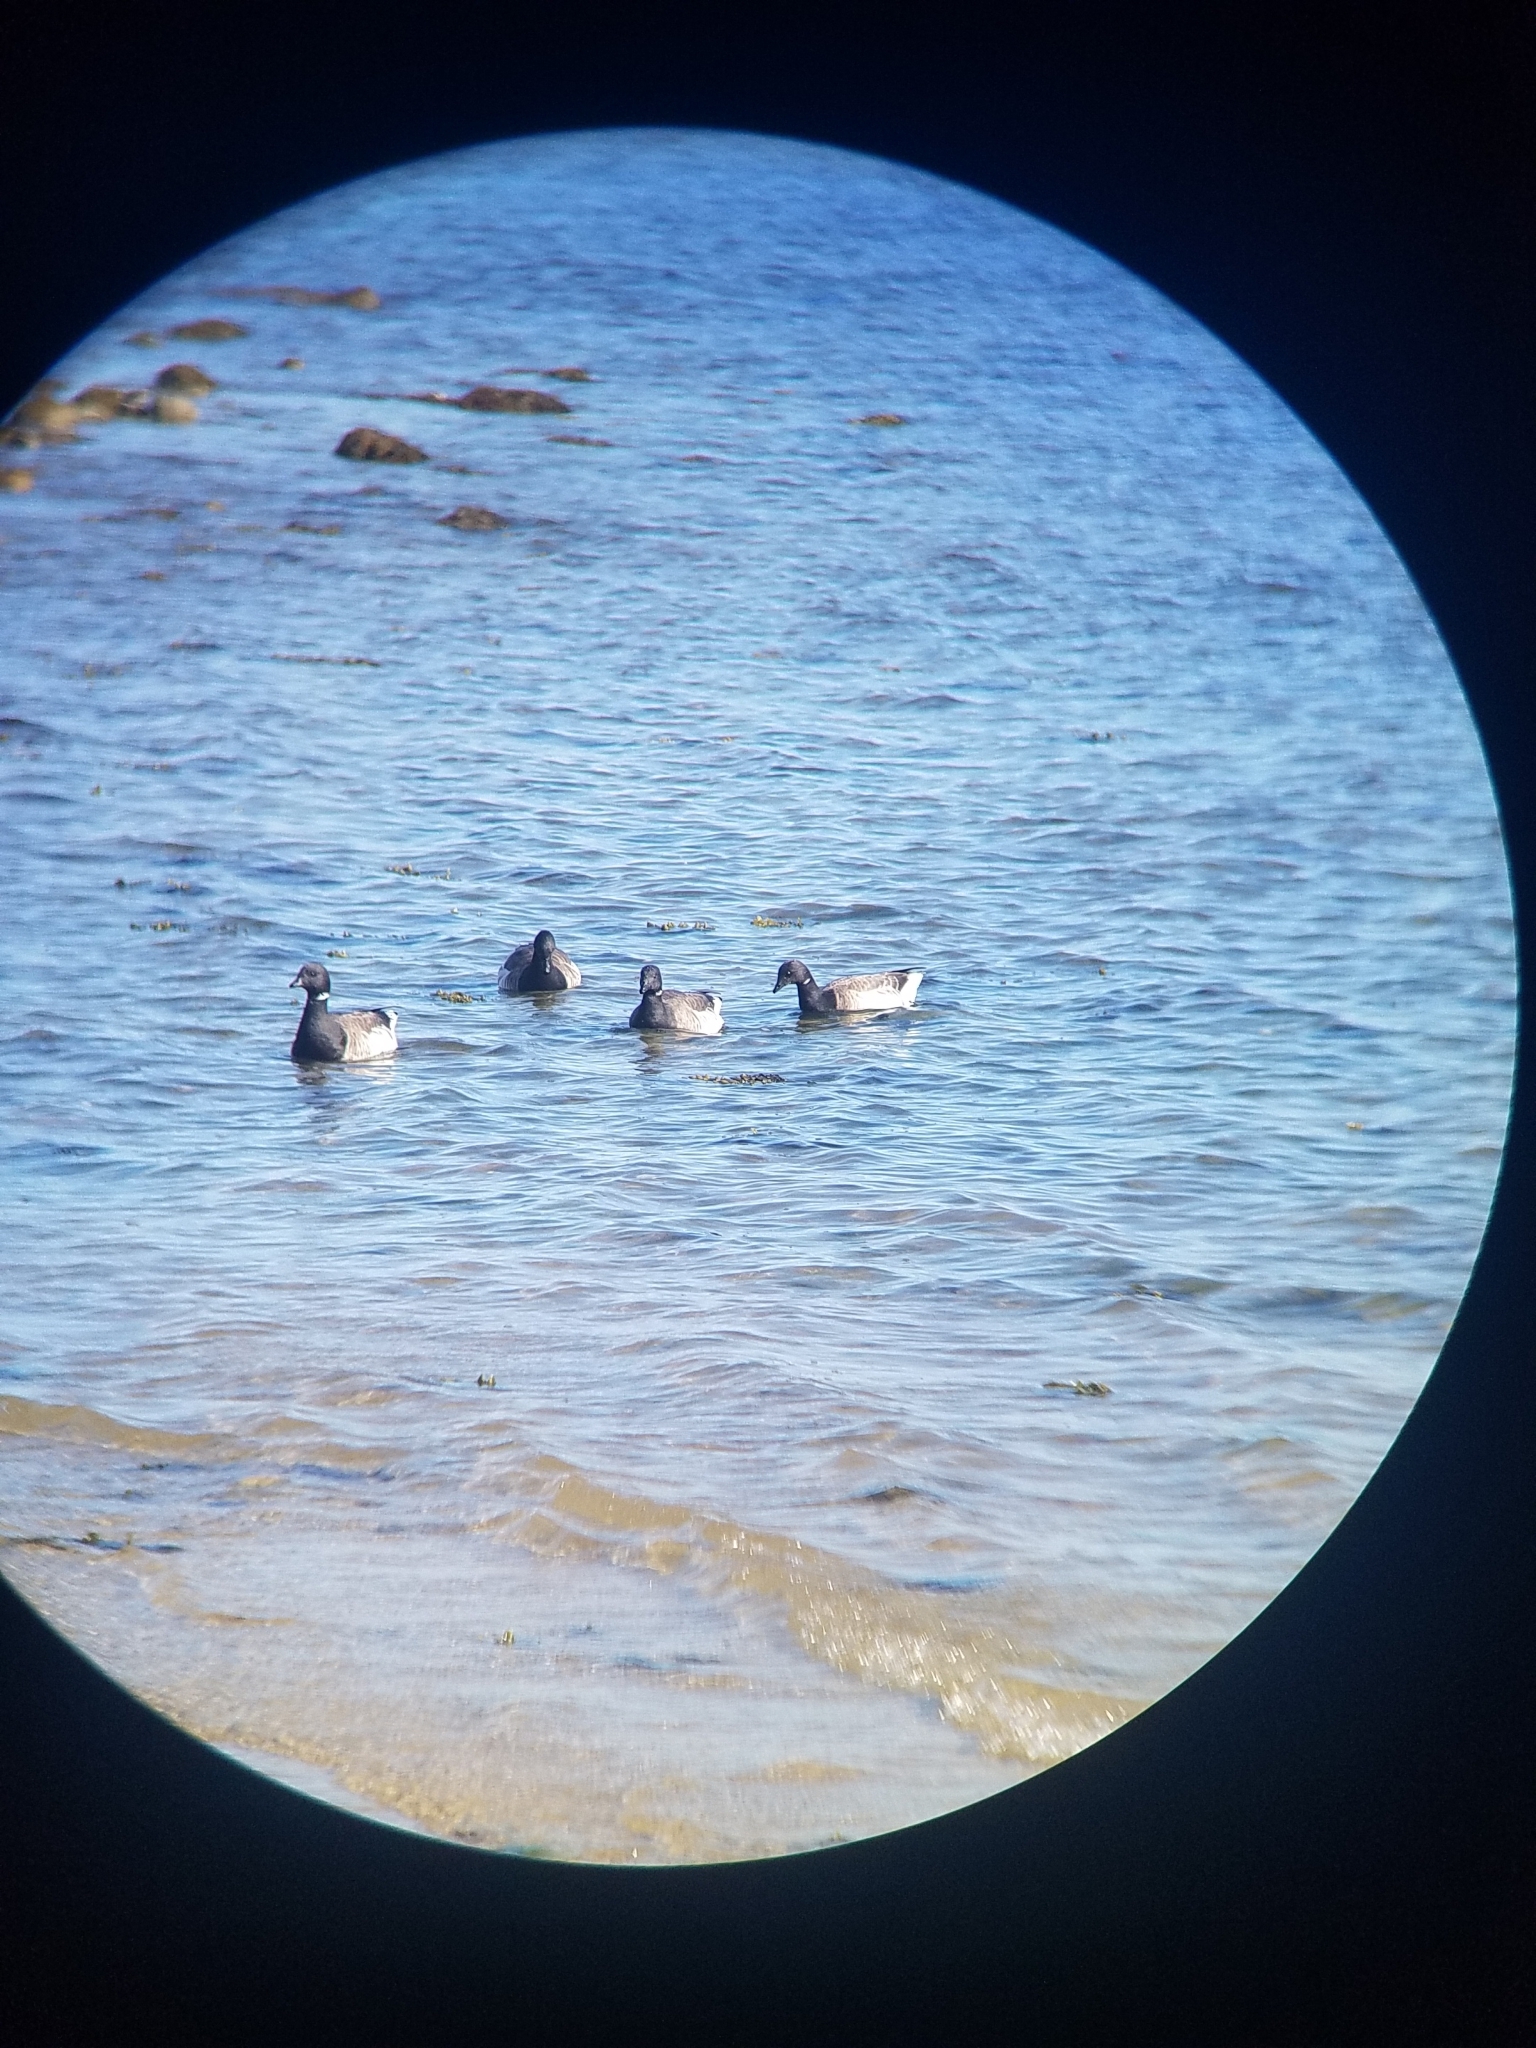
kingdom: Animalia
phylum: Chordata
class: Aves
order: Anseriformes
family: Anatidae
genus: Branta
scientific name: Branta bernicla
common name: Brant goose
